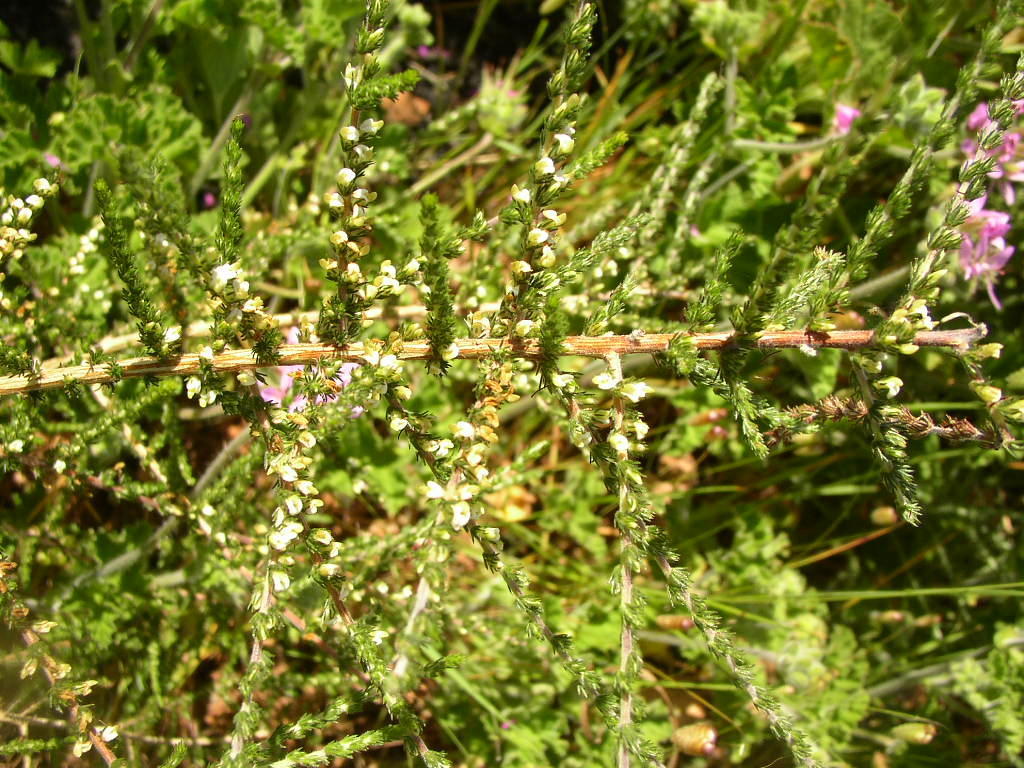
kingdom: Plantae
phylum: Tracheophyta
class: Magnoliopsida
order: Fabales
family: Fabaceae
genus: Aspalathus
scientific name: Aspalathus hispida
